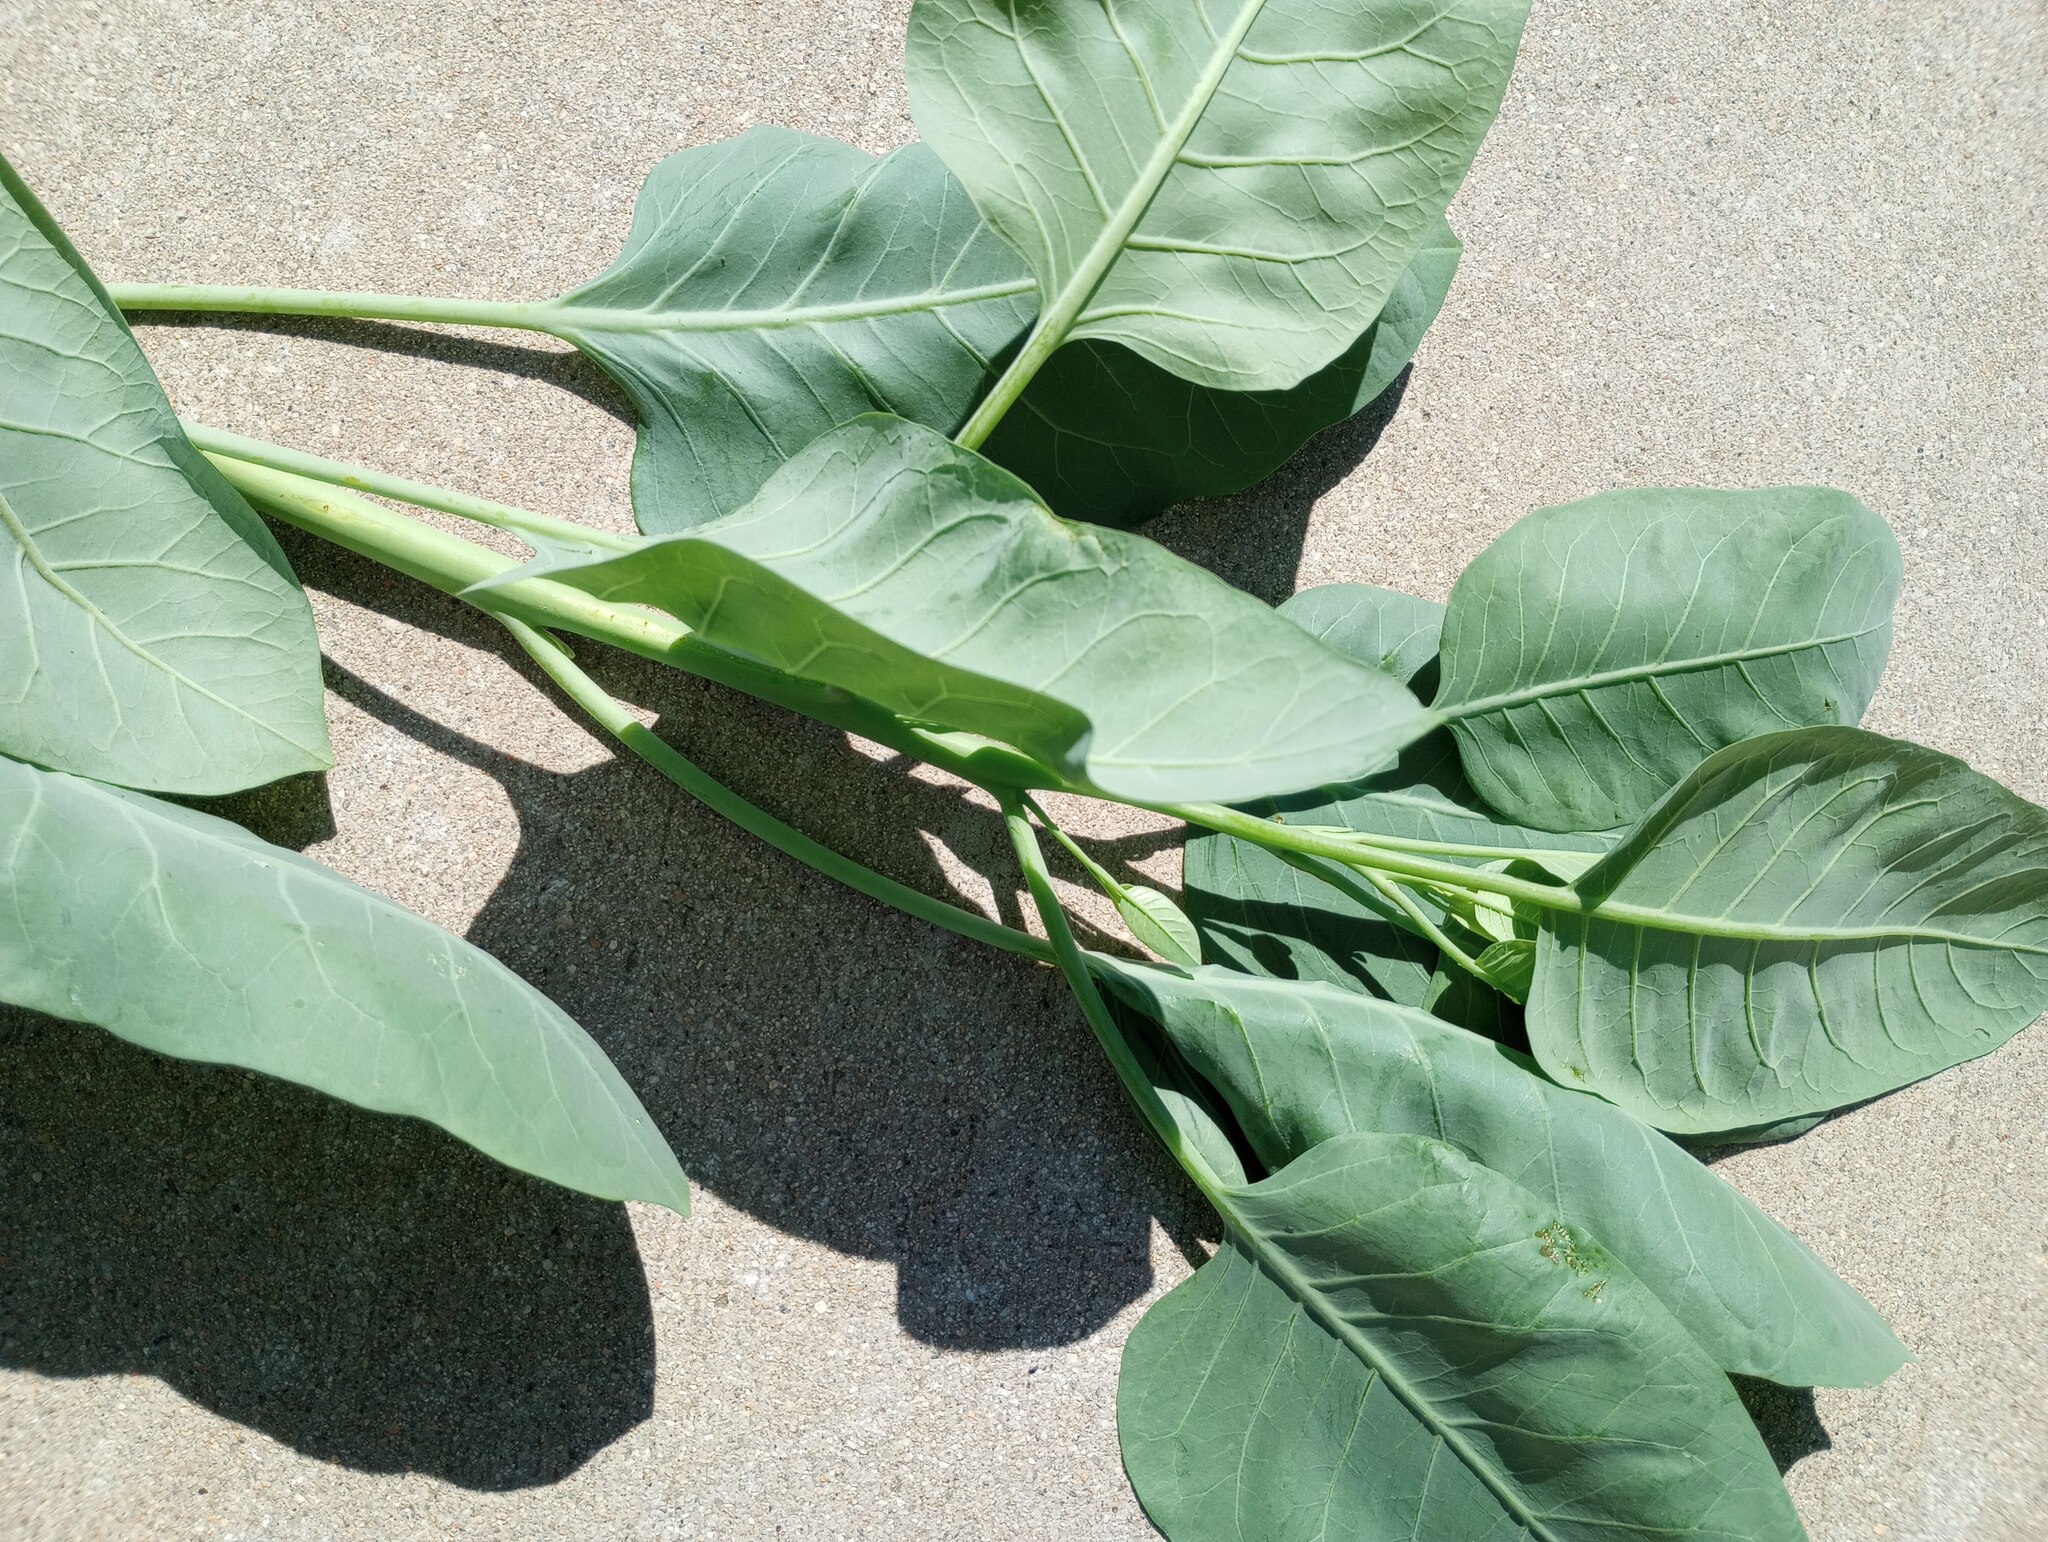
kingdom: Plantae
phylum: Tracheophyta
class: Magnoliopsida
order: Solanales
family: Solanaceae
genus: Nicotiana
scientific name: Nicotiana glauca
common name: Tree tobacco
